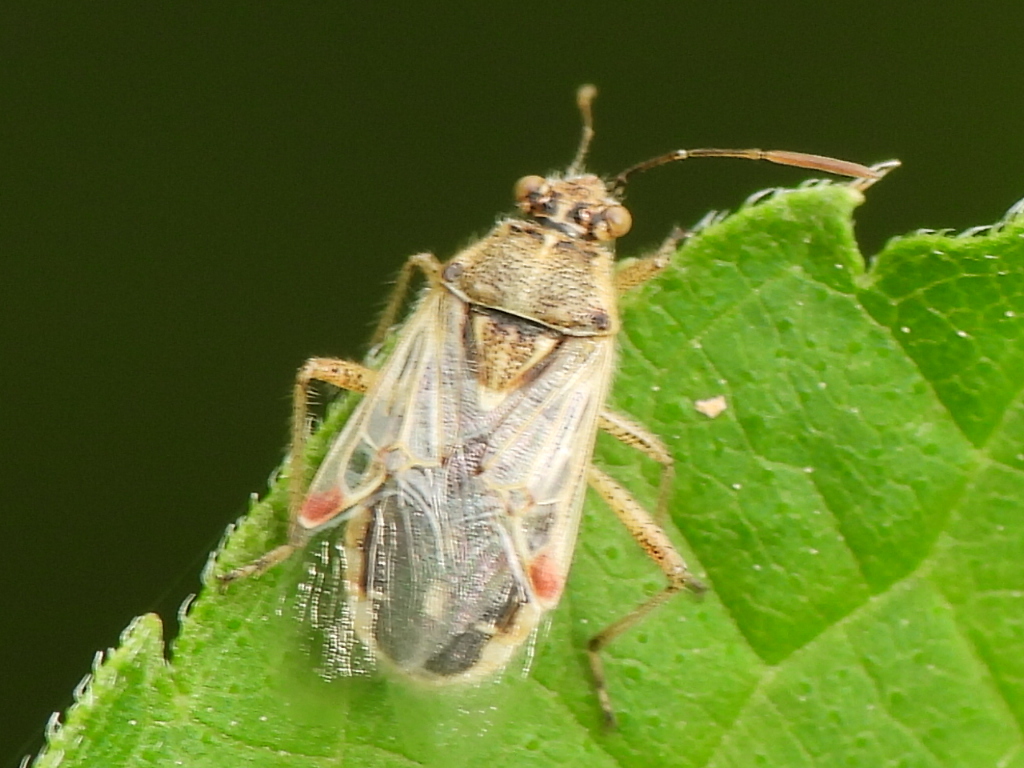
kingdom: Animalia
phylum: Arthropoda
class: Insecta
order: Hemiptera
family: Rhopalidae
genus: Liorhyssus
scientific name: Liorhyssus hyalinus
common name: Scentless plant bug
